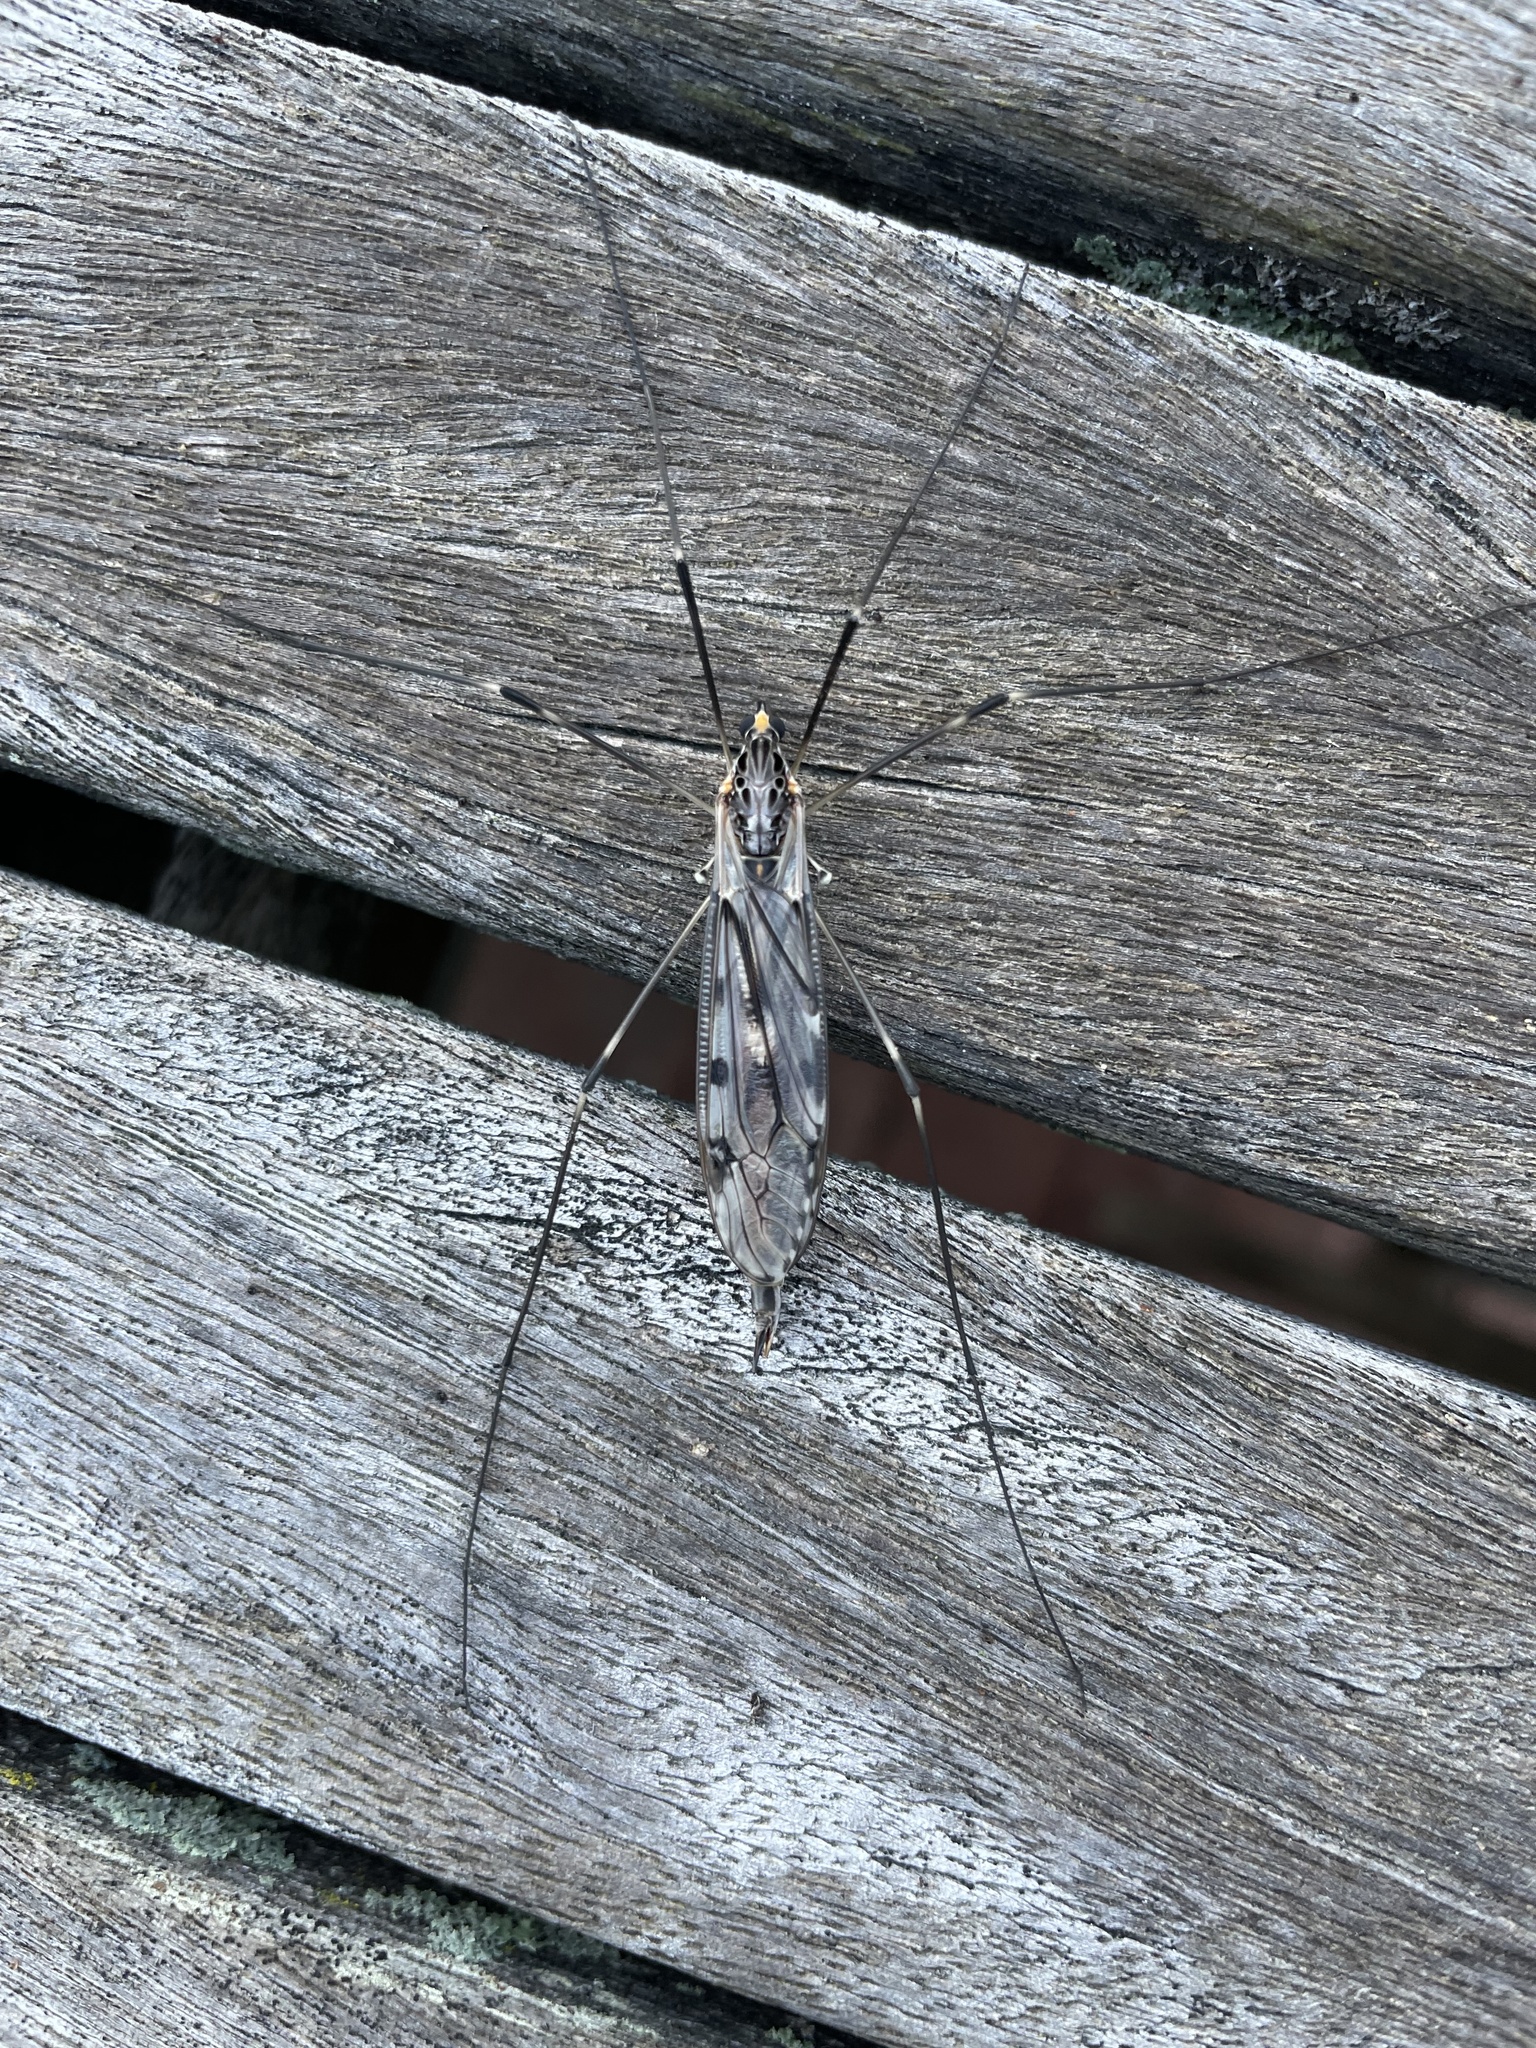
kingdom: Animalia
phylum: Arthropoda
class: Insecta
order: Diptera
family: Tipulidae
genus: Tipula
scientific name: Tipula abdominalis
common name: Giant crane fly
